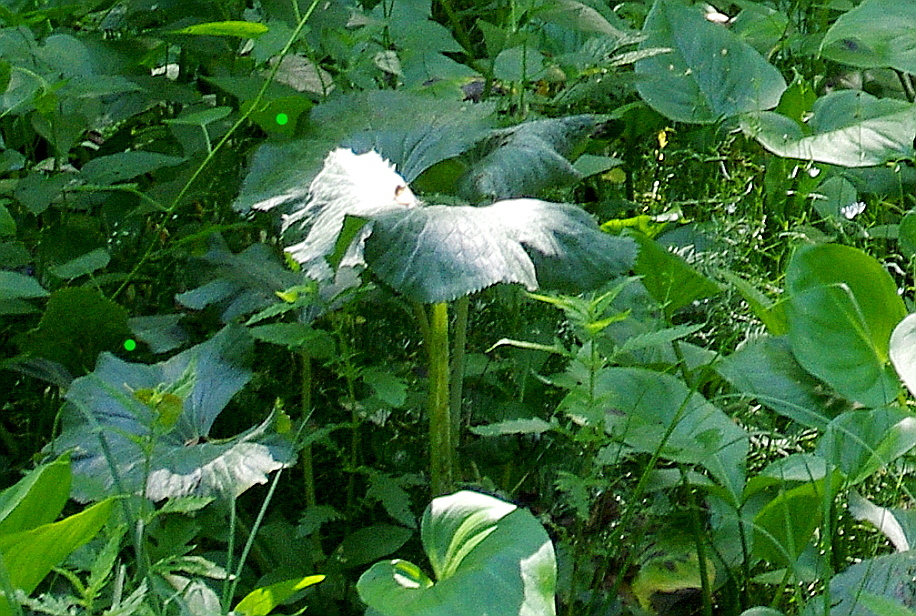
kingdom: Plantae
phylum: Tracheophyta
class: Magnoliopsida
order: Ranunculales
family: Ranunculaceae
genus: Caltha
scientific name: Caltha palustris
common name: Marsh marigold
